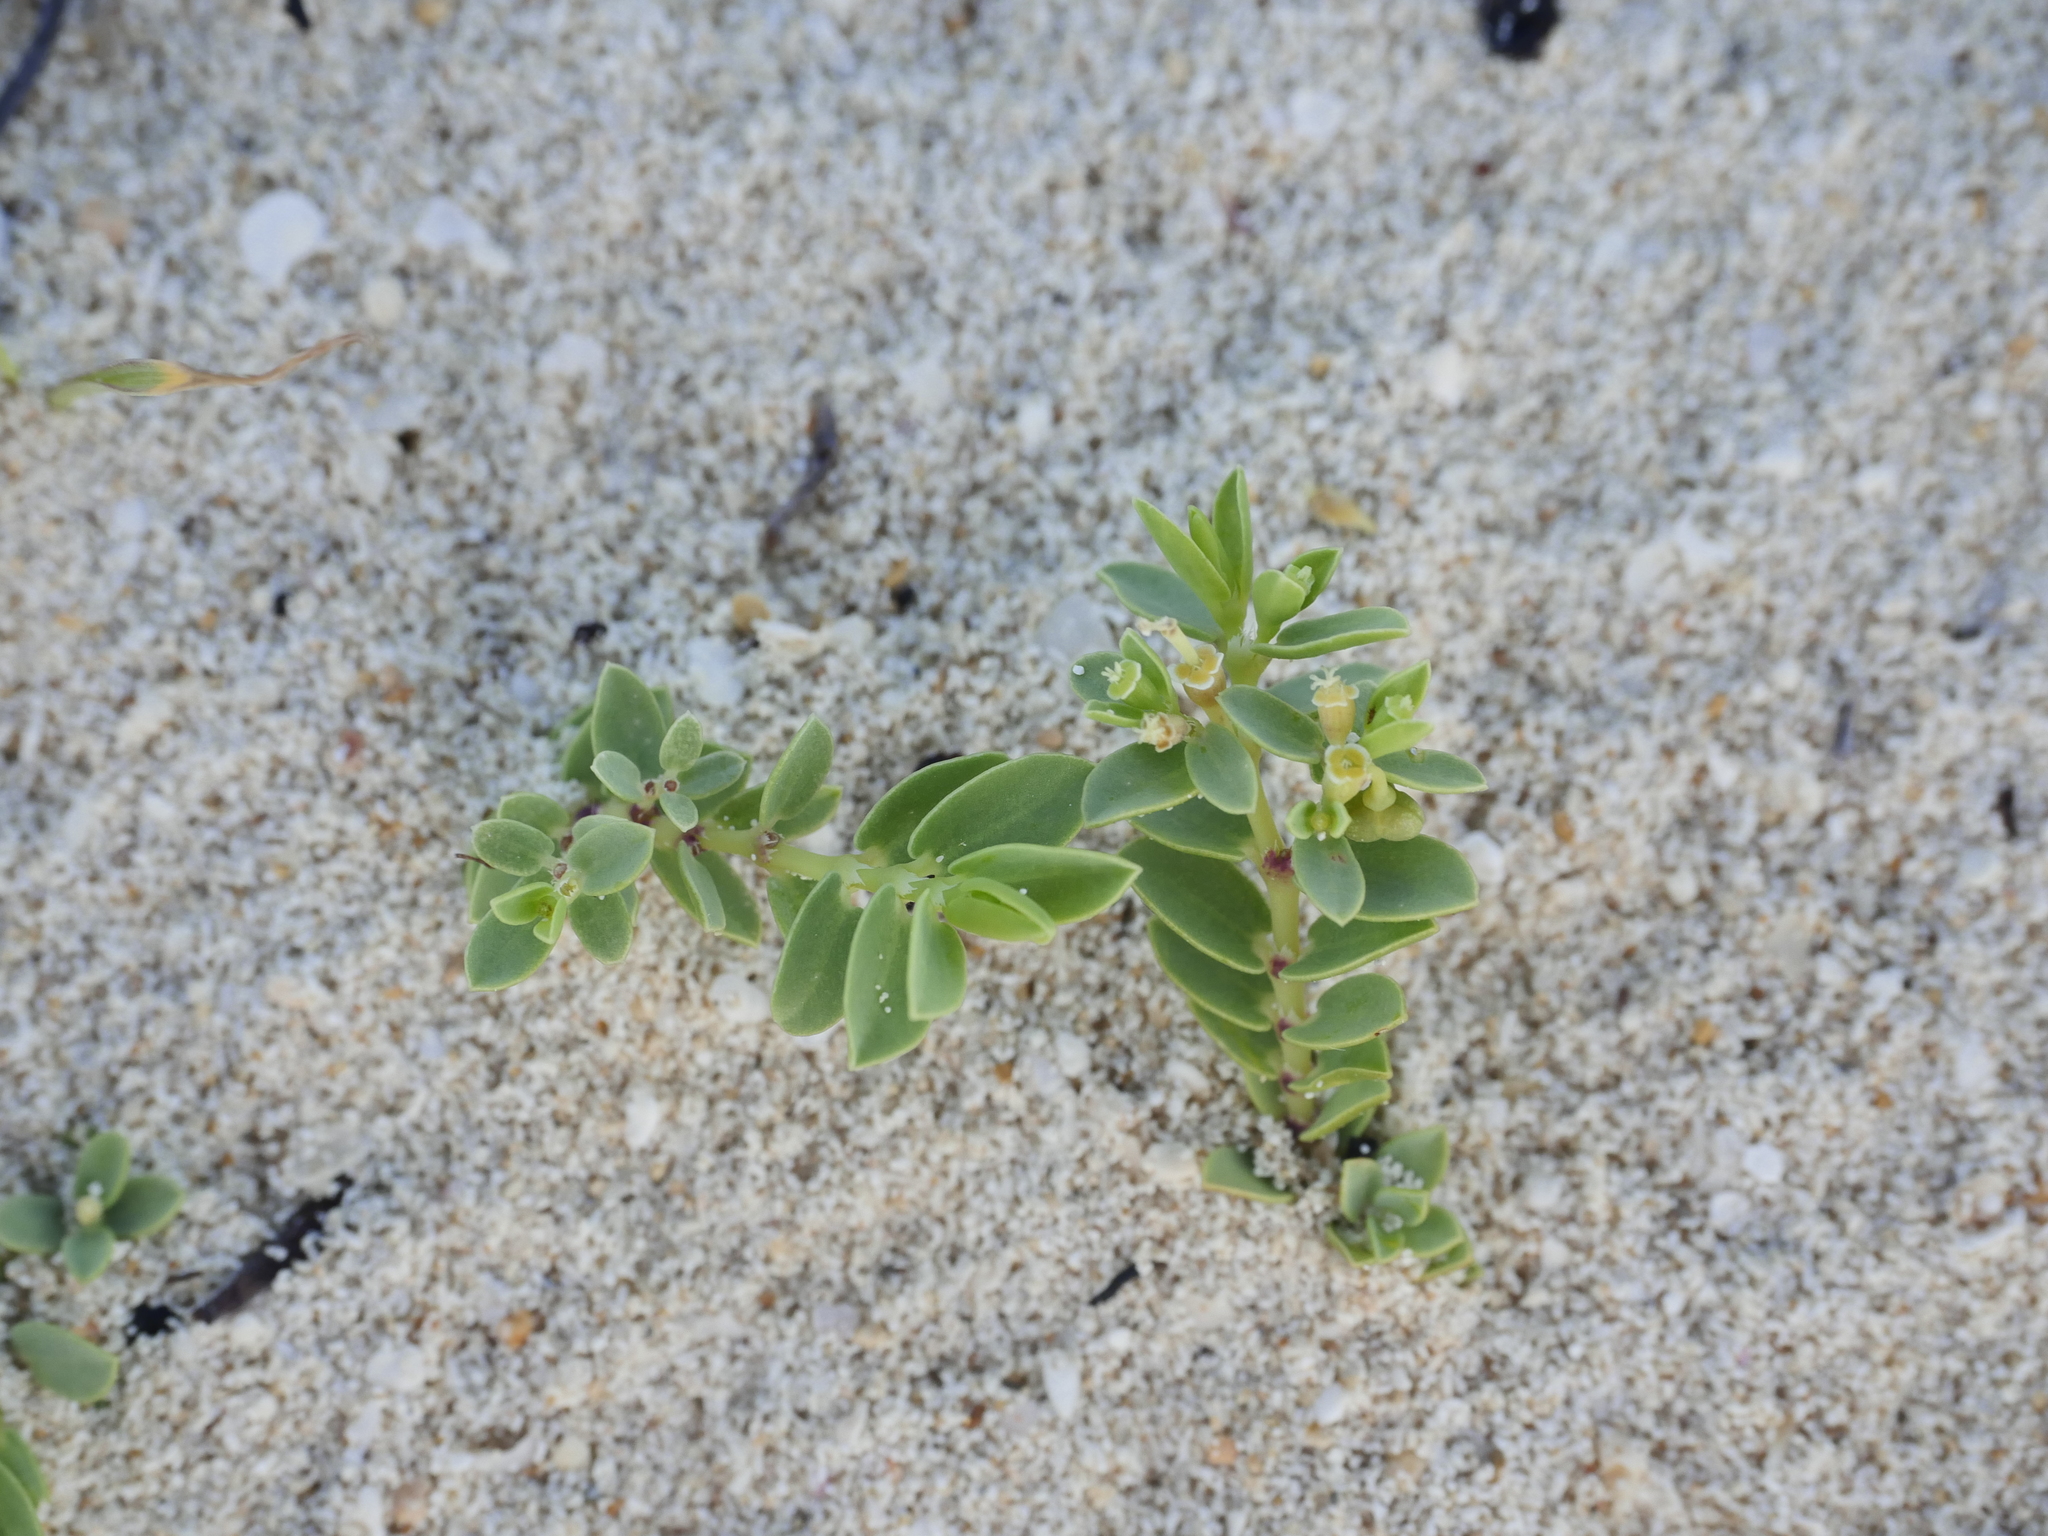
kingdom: Plantae
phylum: Tracheophyta
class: Magnoliopsida
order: Malpighiales
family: Euphorbiaceae
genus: Euphorbia
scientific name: Euphorbia mesembryanthemifolia
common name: Coastal beach sandmat
